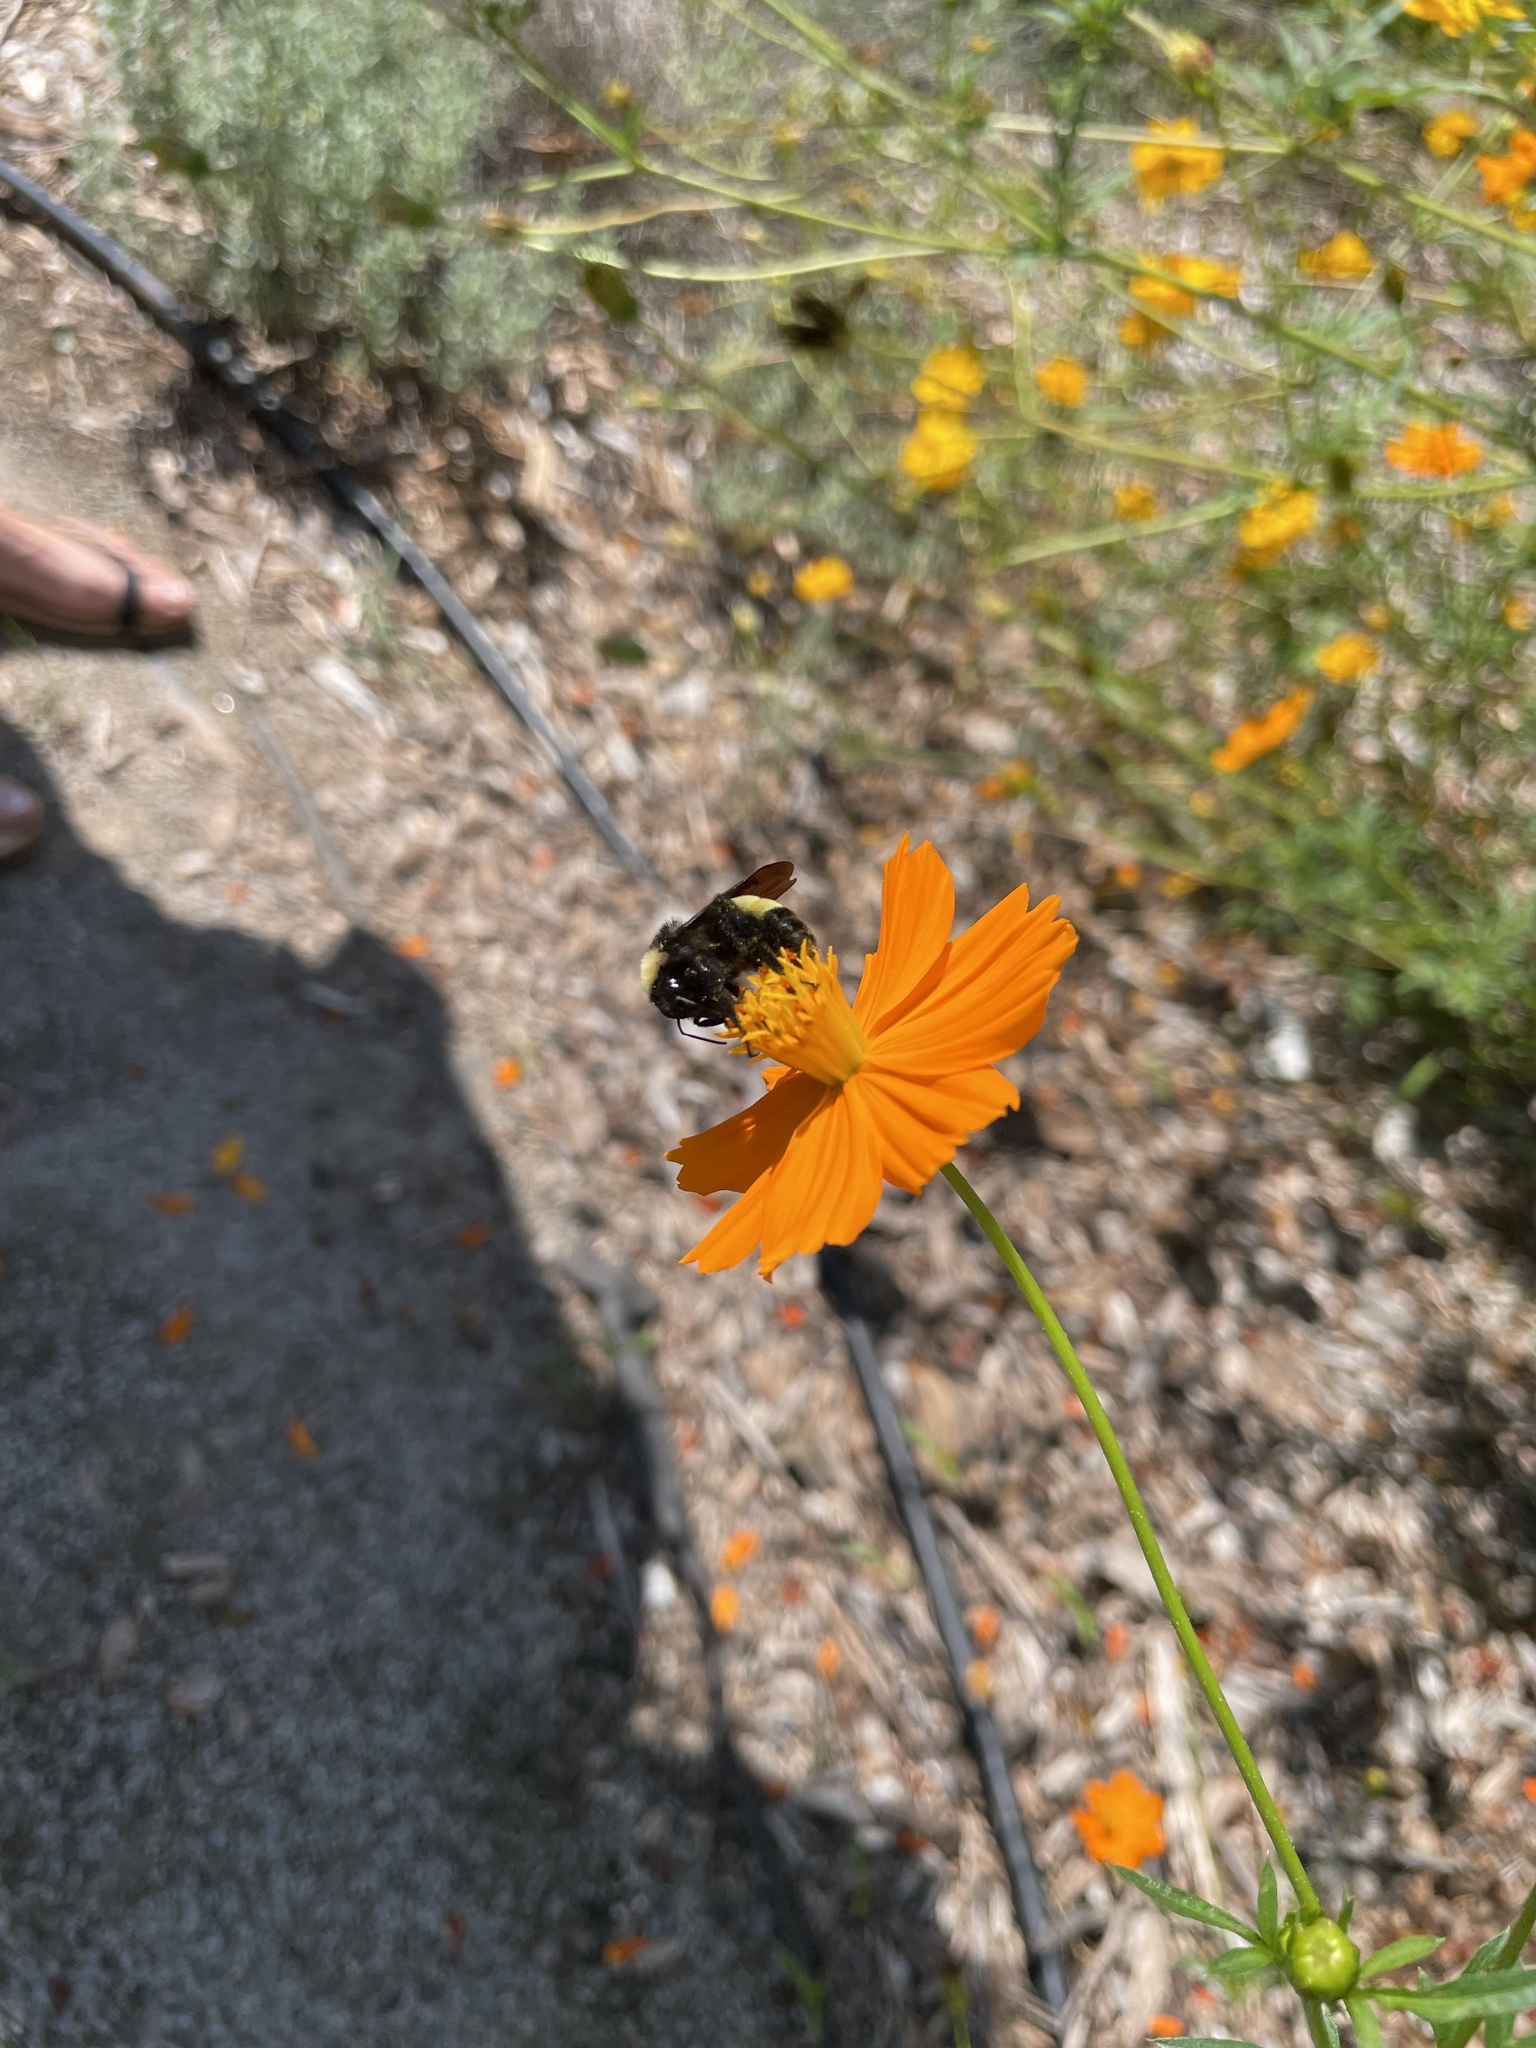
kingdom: Animalia
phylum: Arthropoda
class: Insecta
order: Hymenoptera
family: Apidae
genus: Bombus
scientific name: Bombus pensylvanicus
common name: Bumble bee
